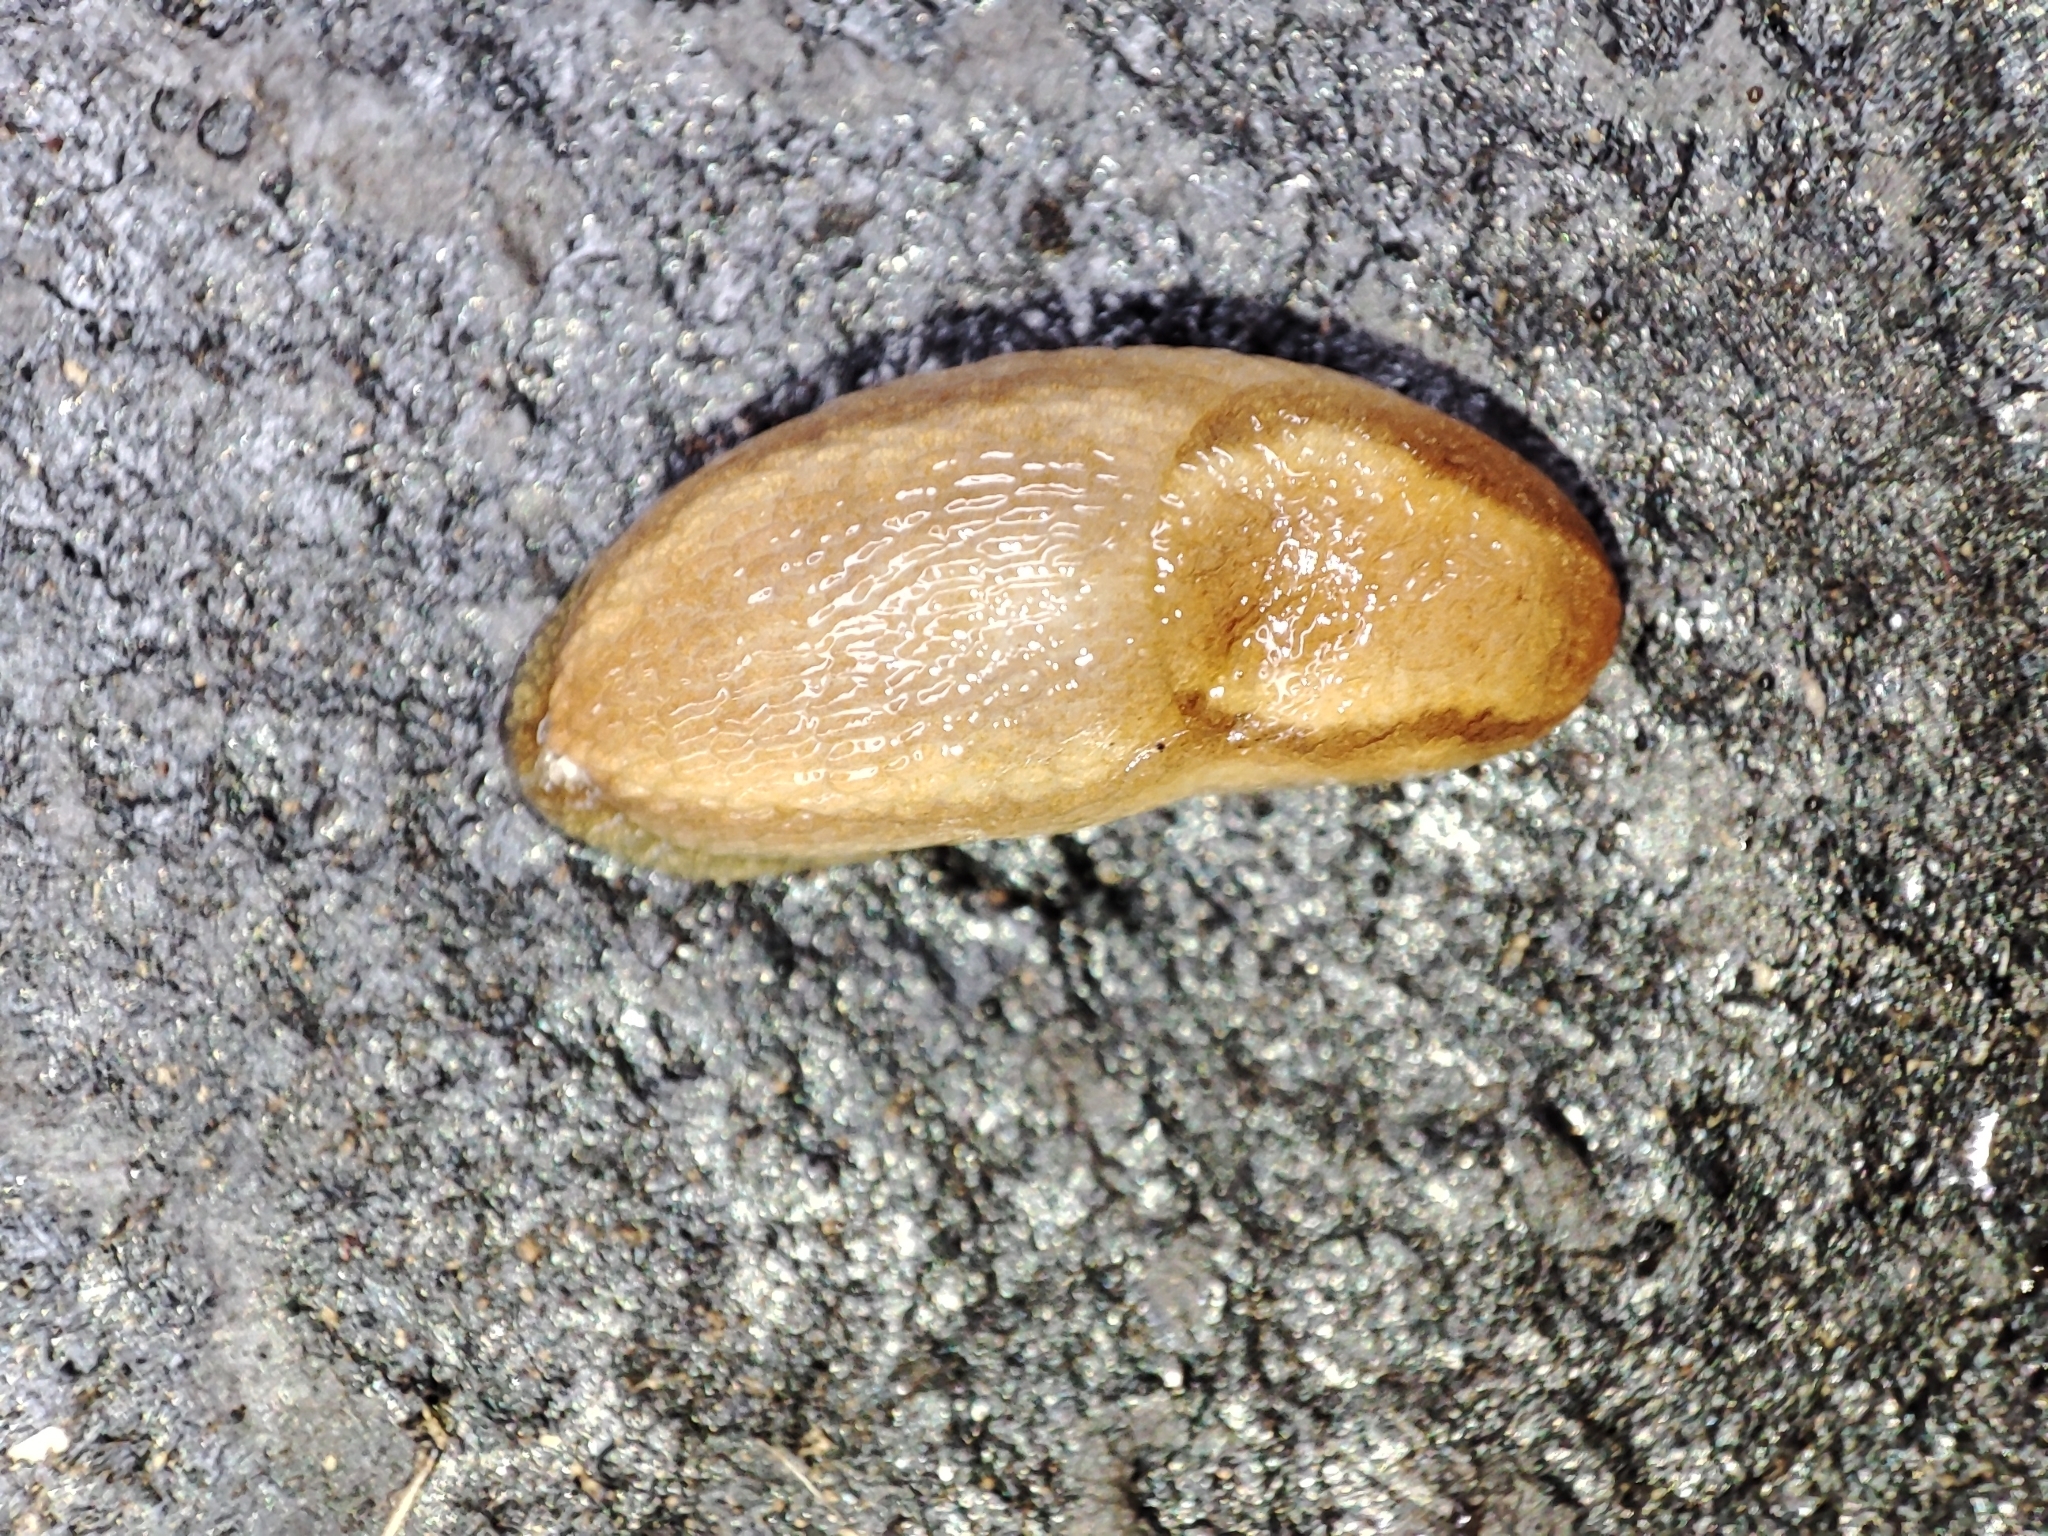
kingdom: Animalia
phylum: Mollusca
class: Gastropoda
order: Stylommatophora
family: Arionidae
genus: Arion
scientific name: Arion fuscus
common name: Northern dusky slug
